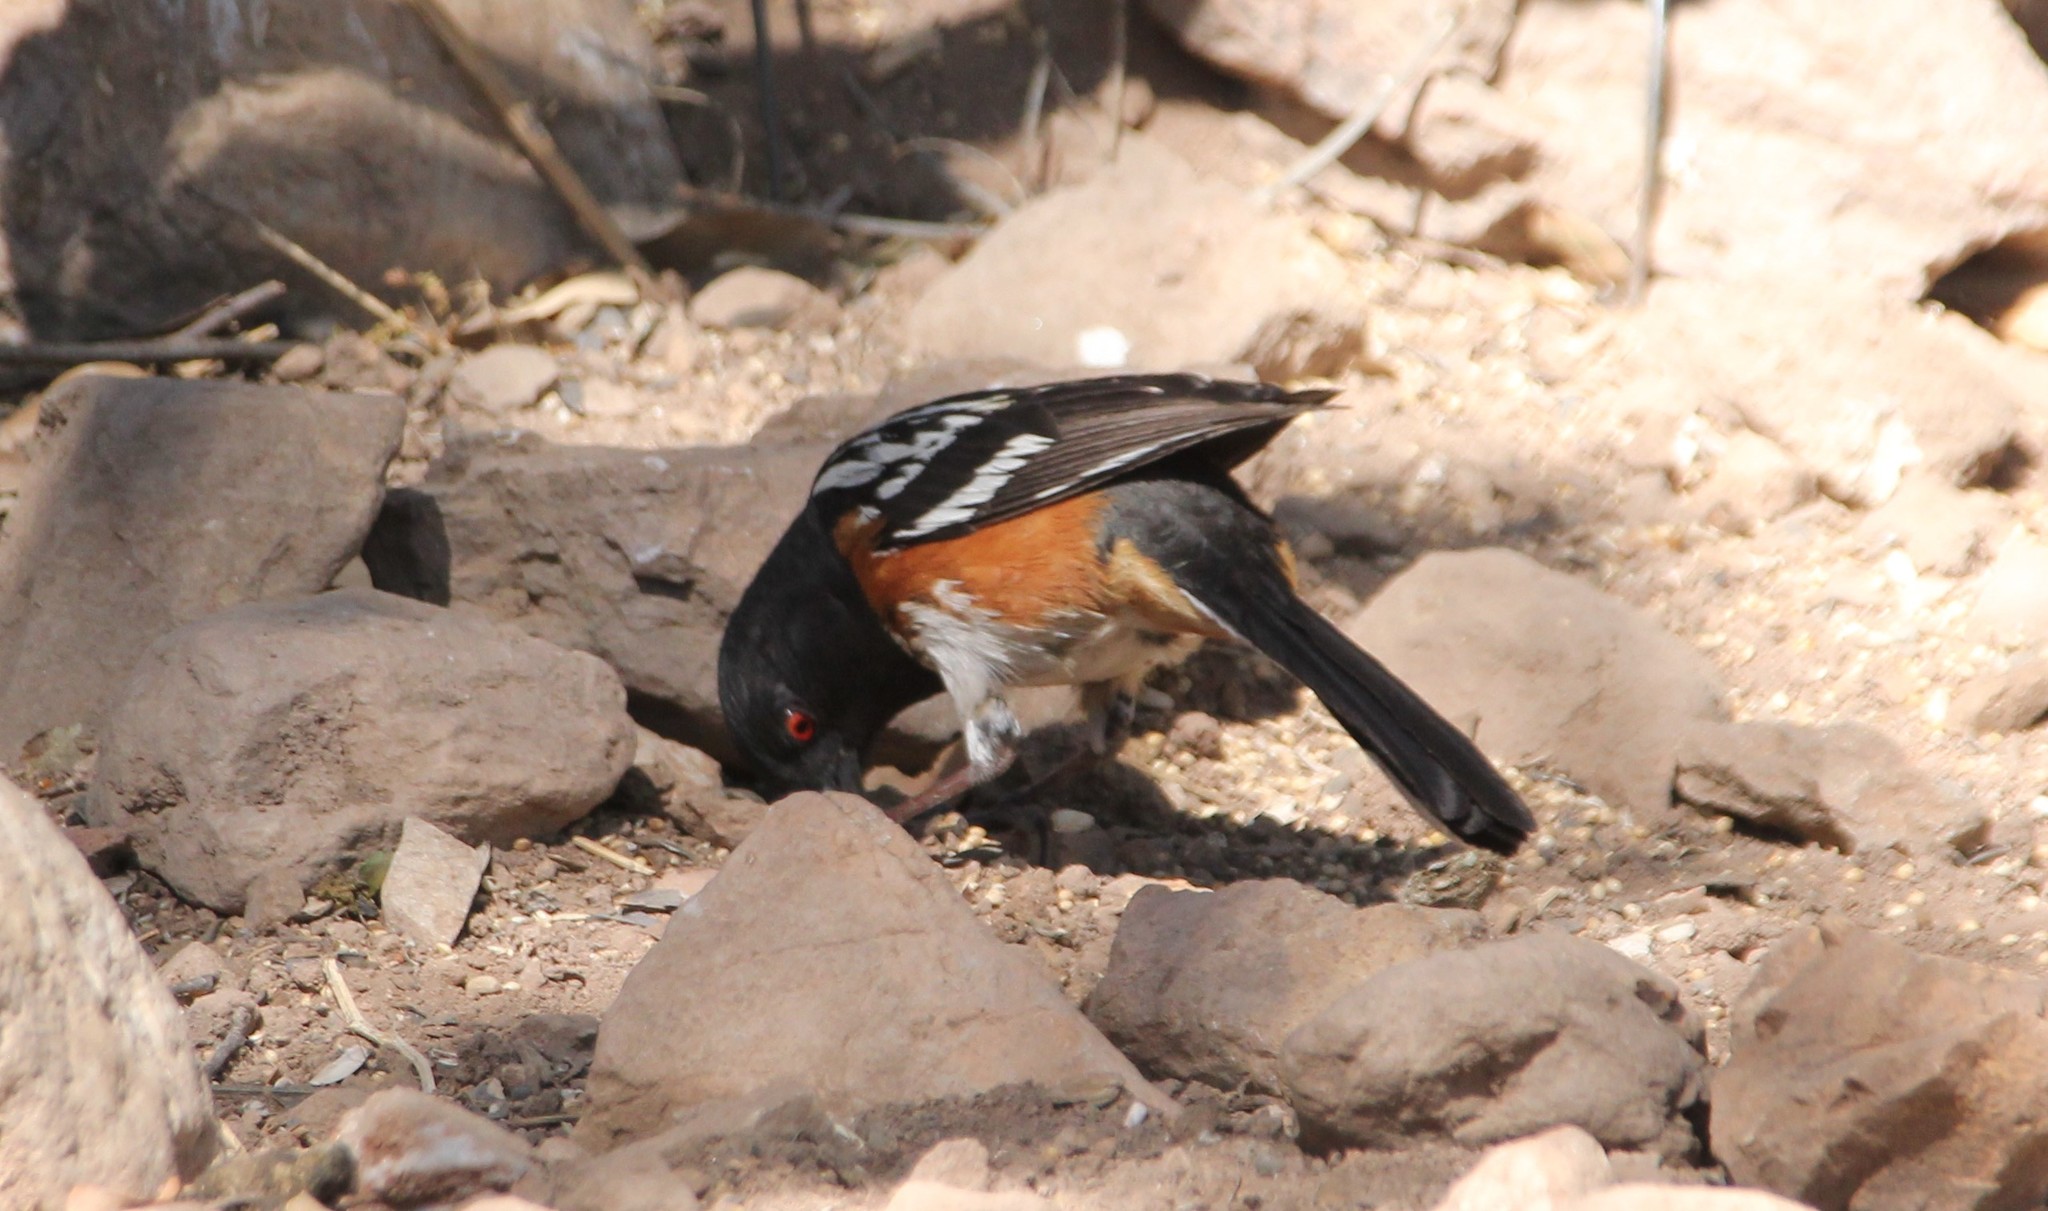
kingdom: Animalia
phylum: Chordata
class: Aves
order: Passeriformes
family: Passerellidae
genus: Pipilo
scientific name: Pipilo maculatus
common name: Spotted towhee
